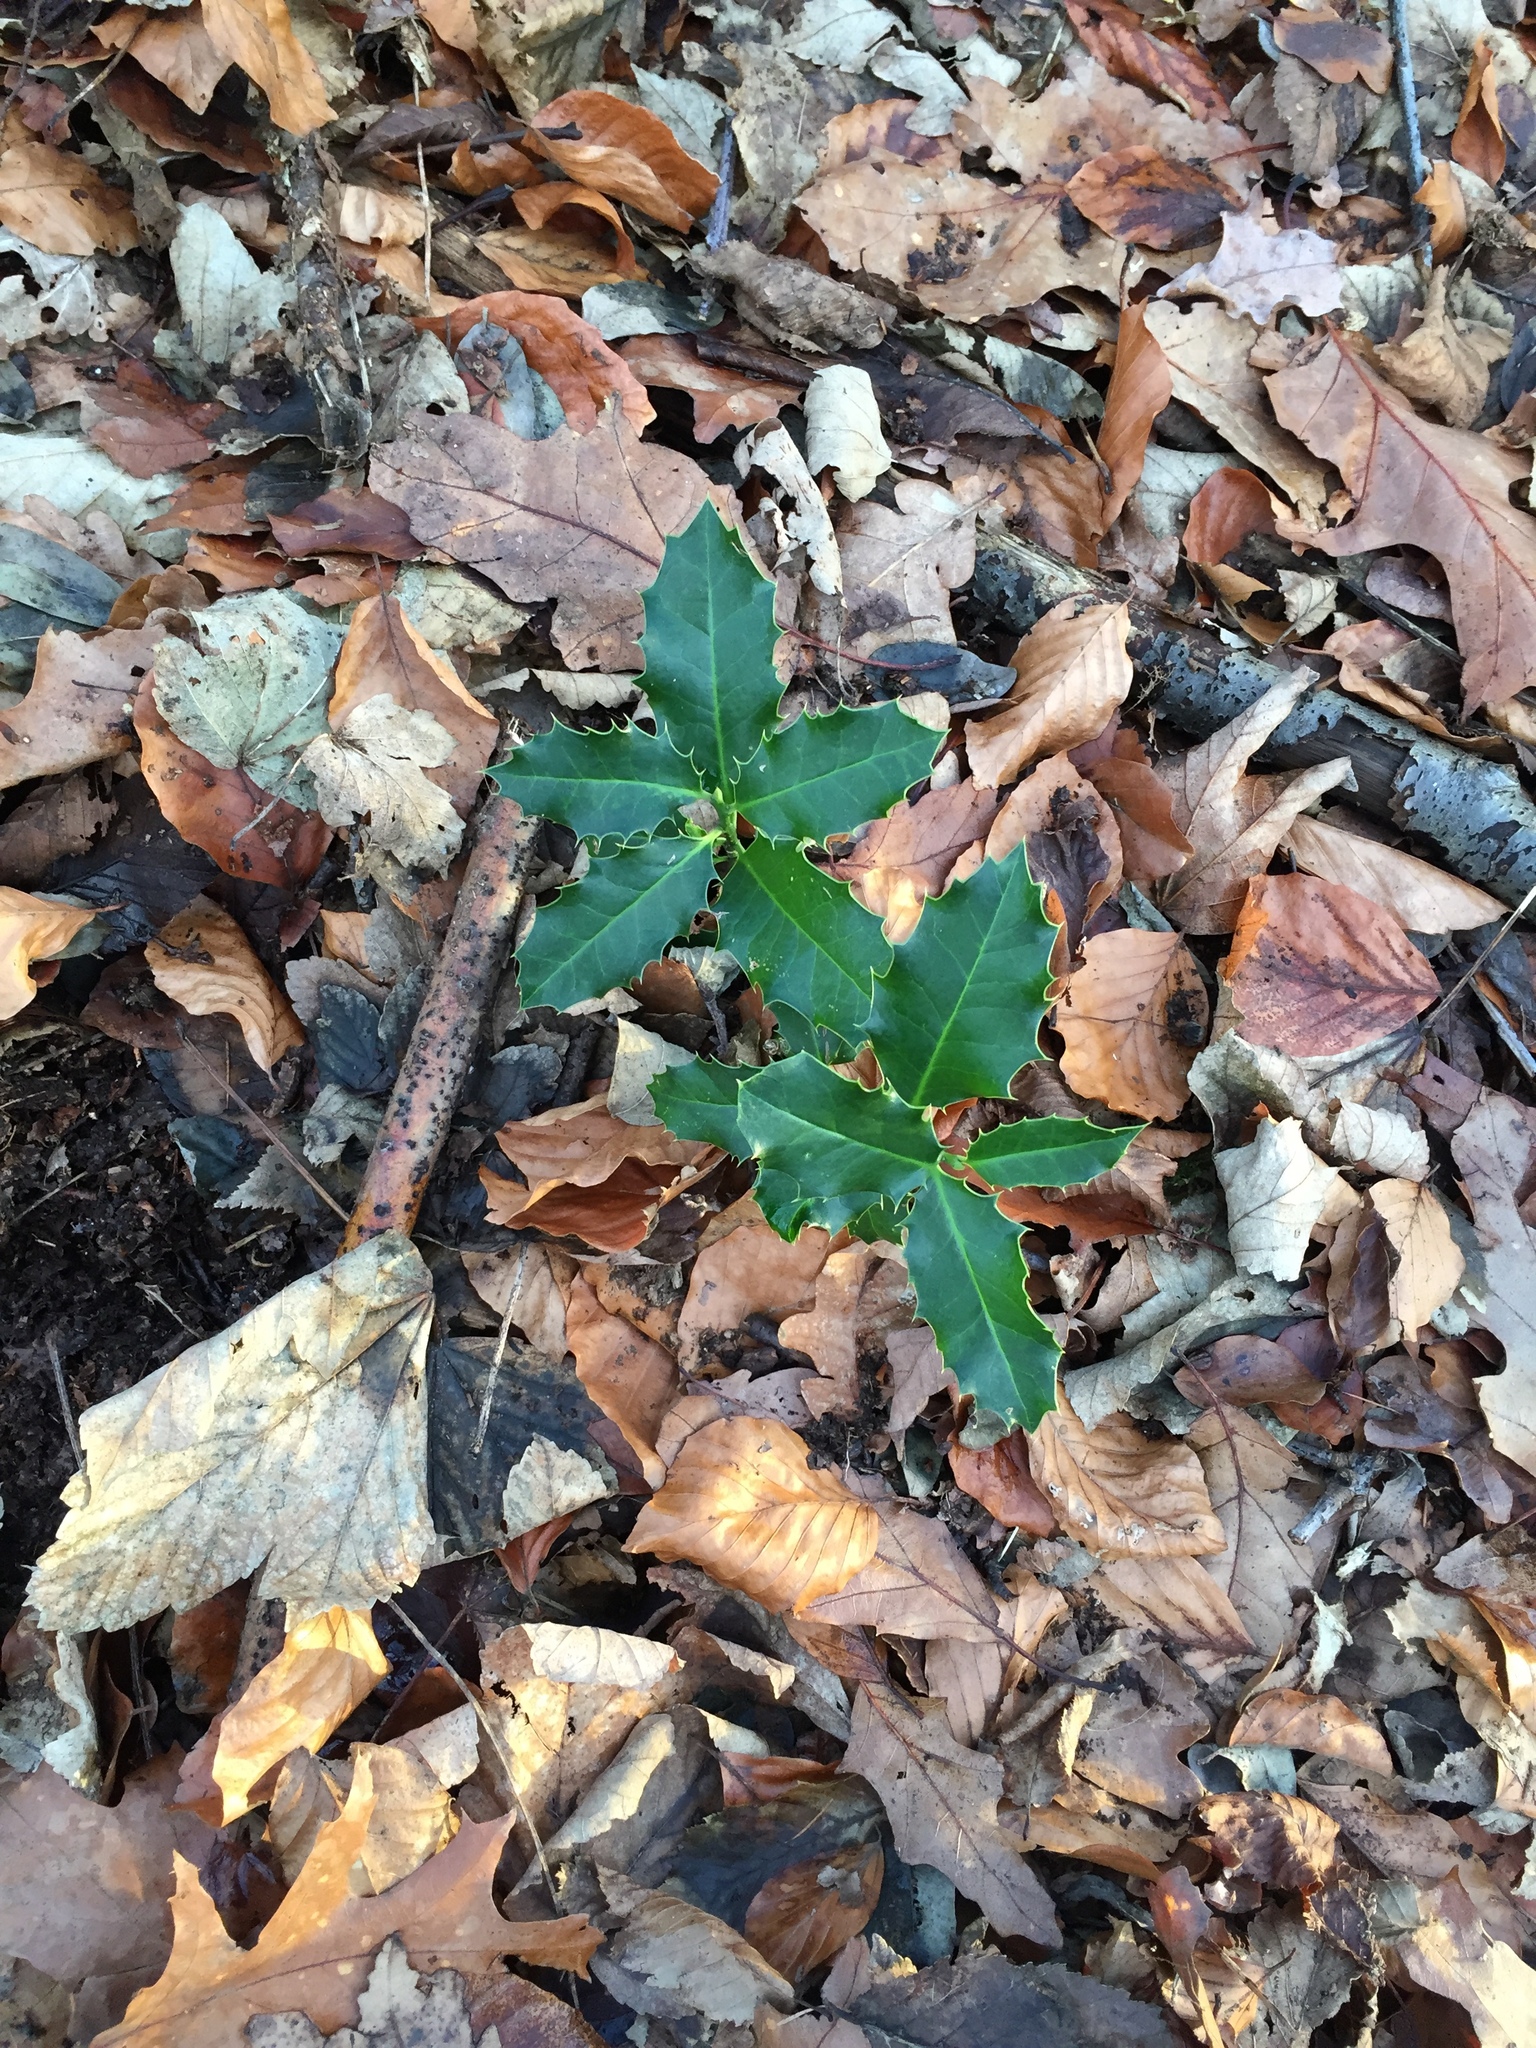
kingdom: Plantae
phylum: Tracheophyta
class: Magnoliopsida
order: Aquifoliales
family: Aquifoliaceae
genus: Ilex
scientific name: Ilex aquifolium
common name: English holly
